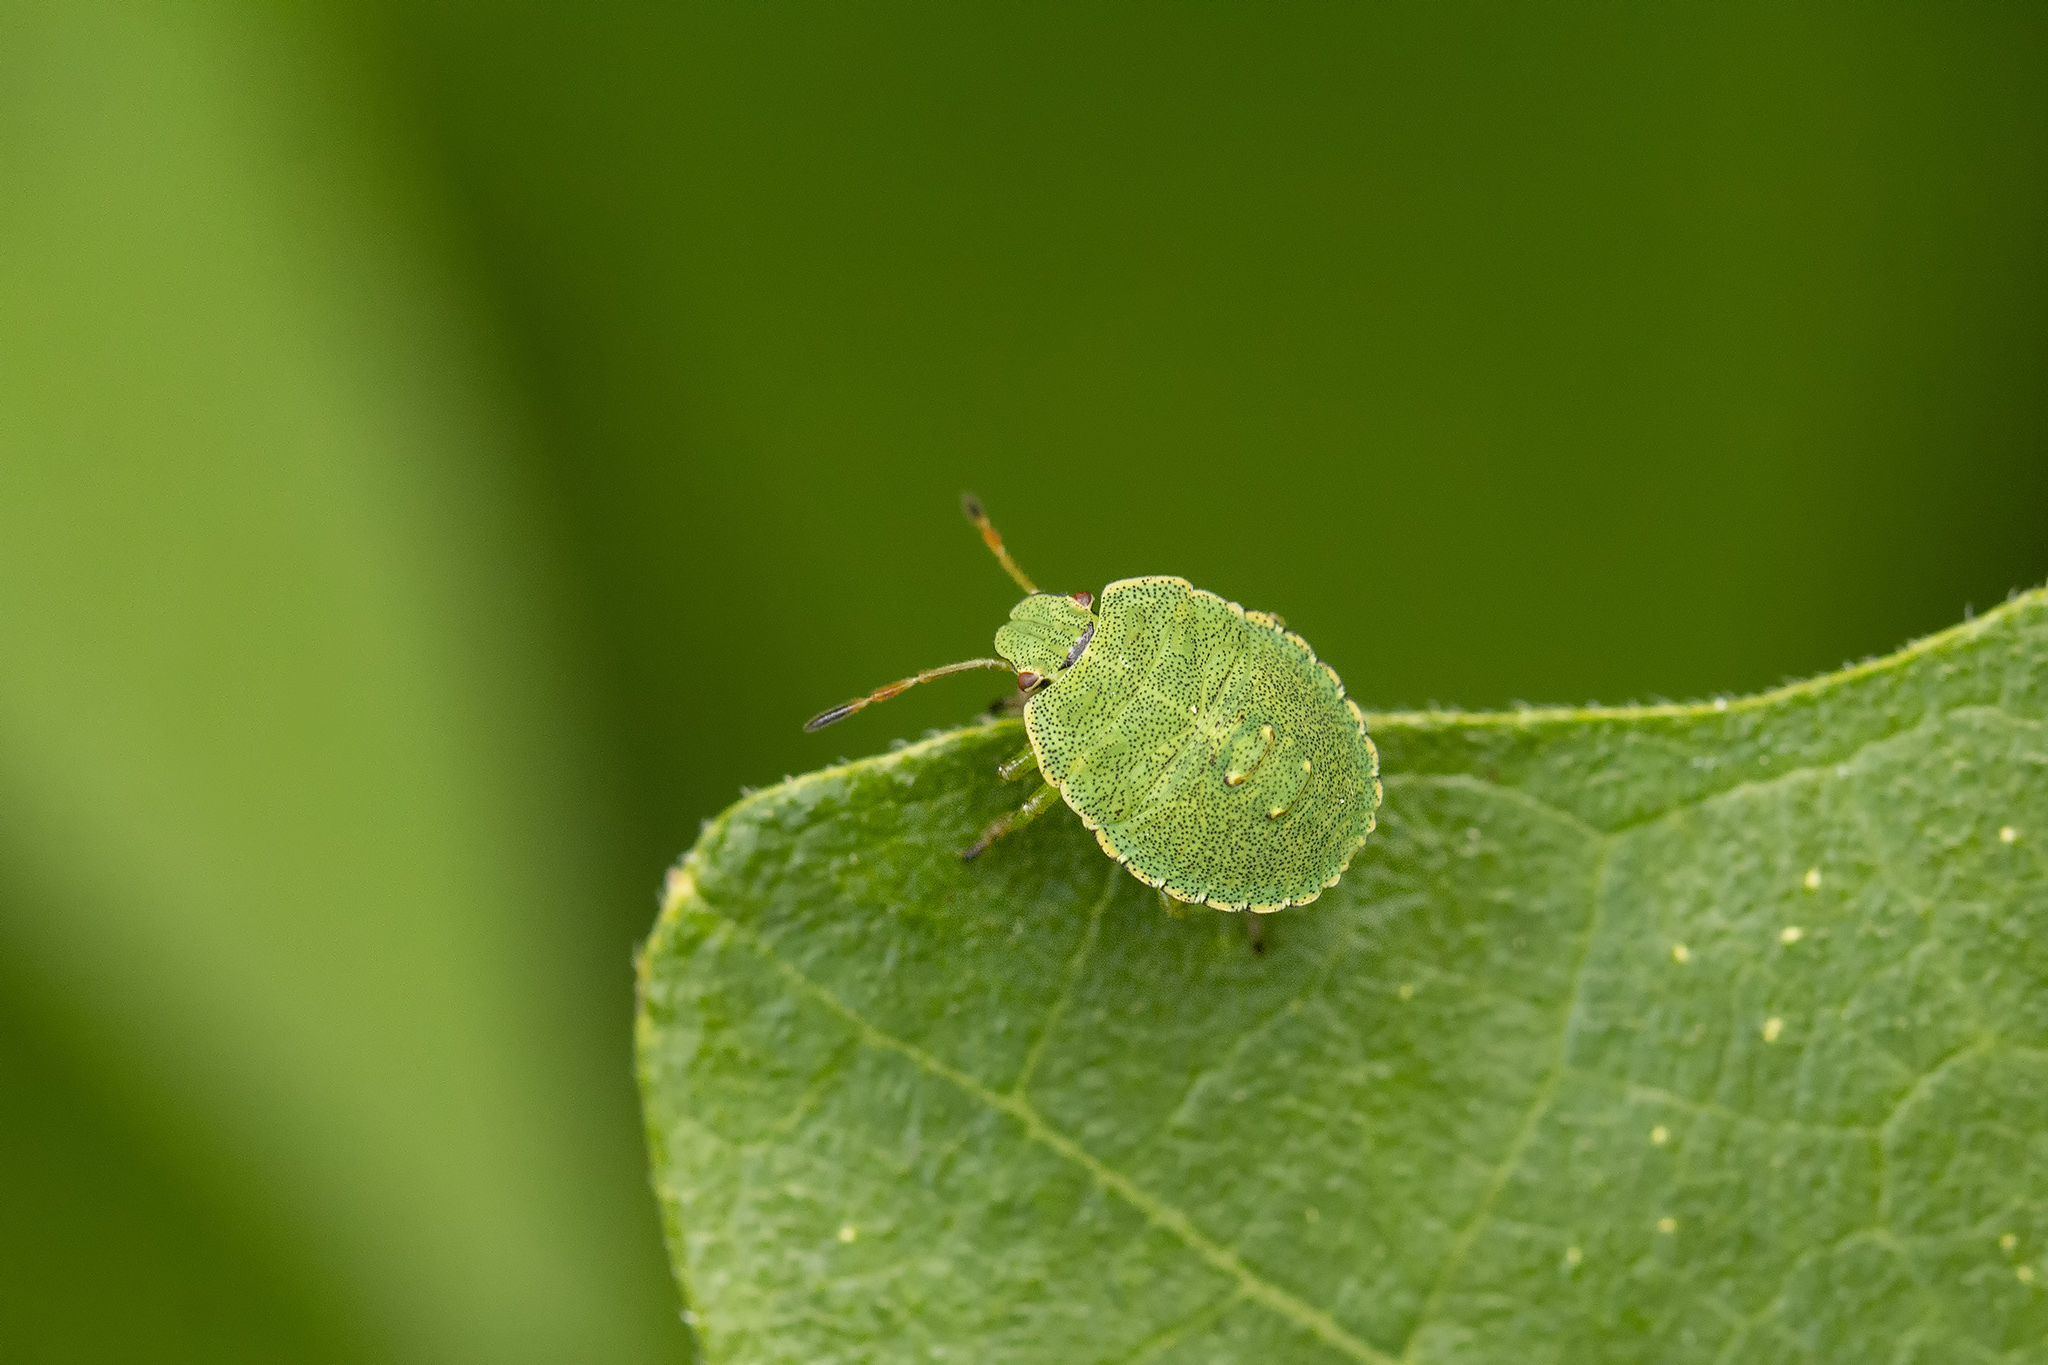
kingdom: Animalia
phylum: Arthropoda
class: Insecta
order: Hemiptera
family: Pentatomidae
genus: Palomena
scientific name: Palomena prasina
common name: Green shieldbug
